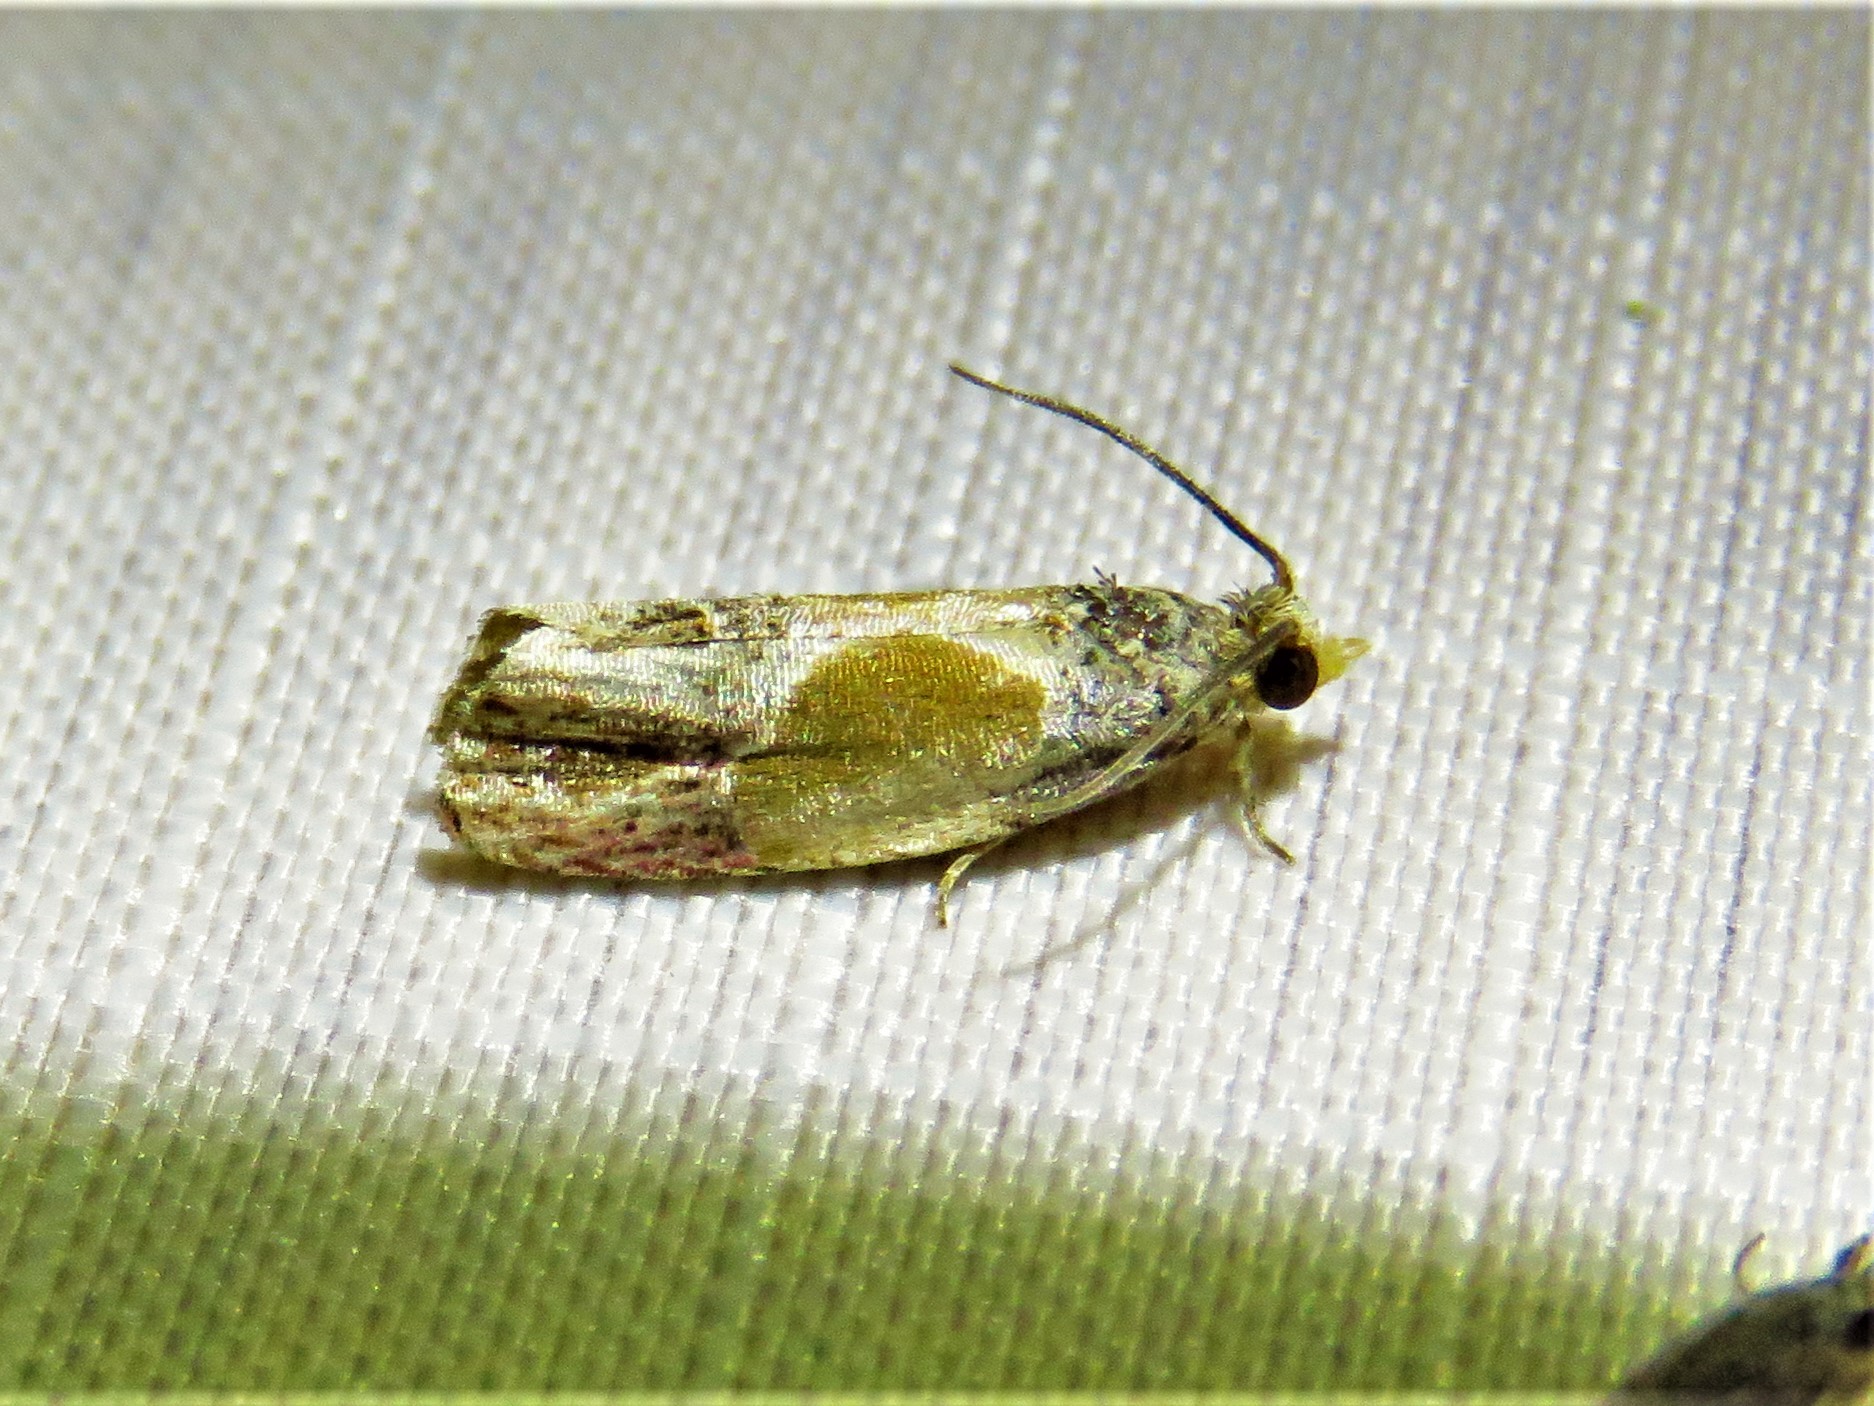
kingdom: Animalia
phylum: Arthropoda
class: Insecta
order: Lepidoptera
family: Tortricidae
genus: Eumarozia
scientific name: Eumarozia malachitana
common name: Sculptured moth
